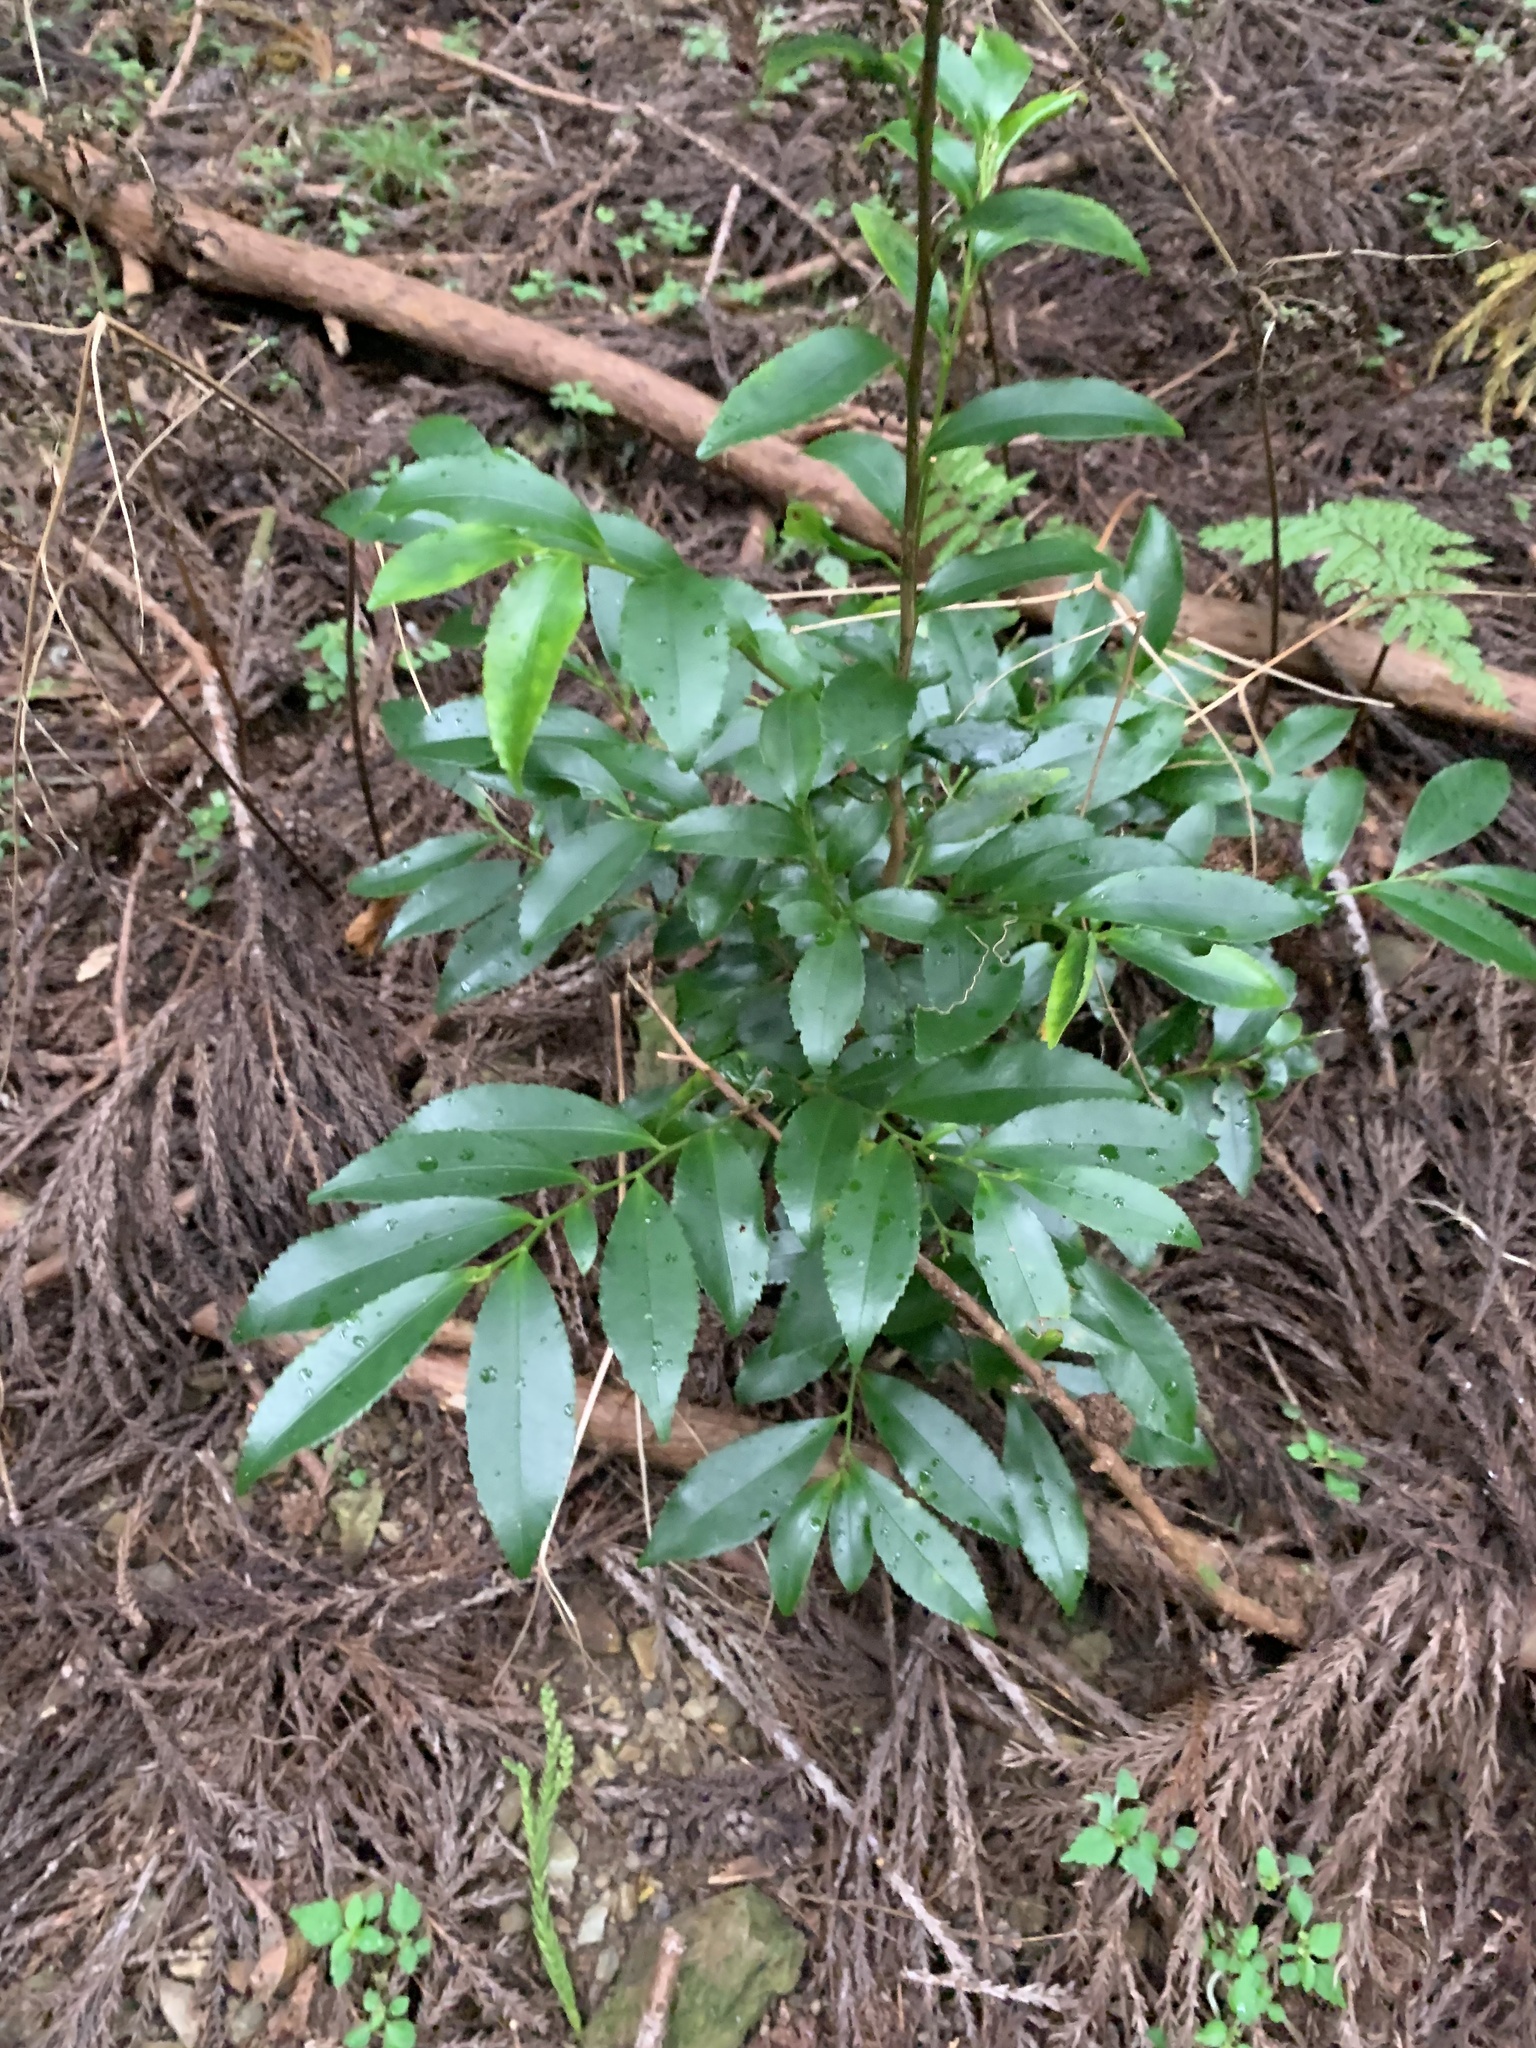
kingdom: Plantae
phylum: Tracheophyta
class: Magnoliopsida
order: Ericales
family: Pentaphylacaceae
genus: Eurya
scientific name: Eurya japonica
